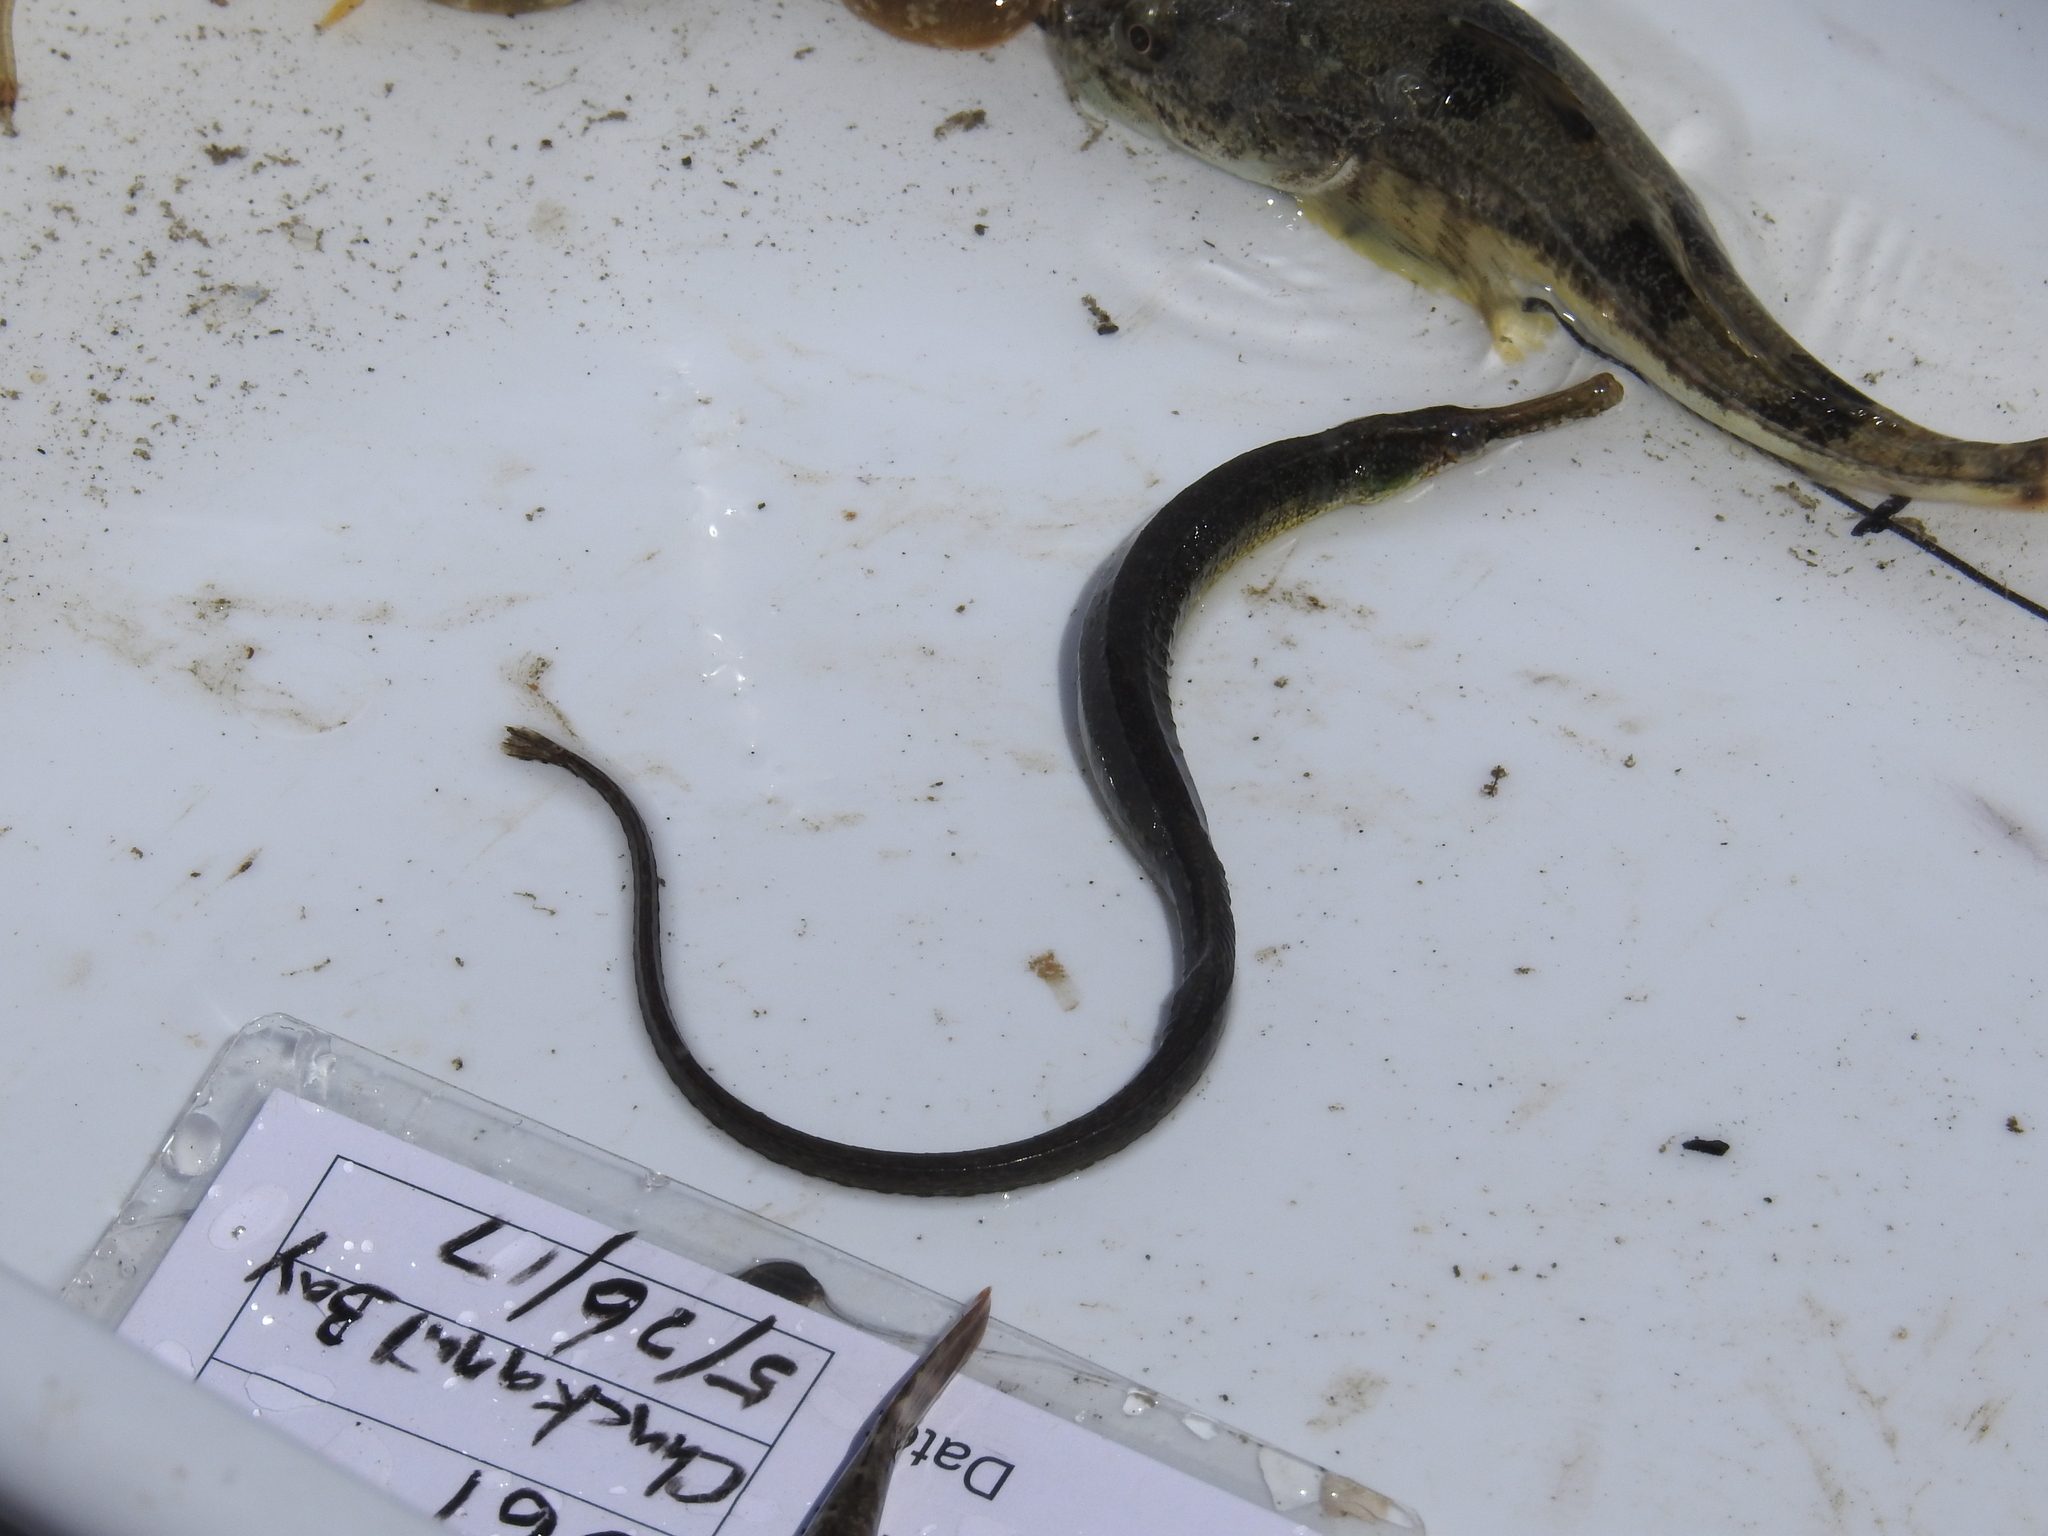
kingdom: Animalia
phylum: Chordata
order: Syngnathiformes
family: Syngnathidae
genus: Syngnathus
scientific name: Syngnathus californiensis
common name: Great pipefish
